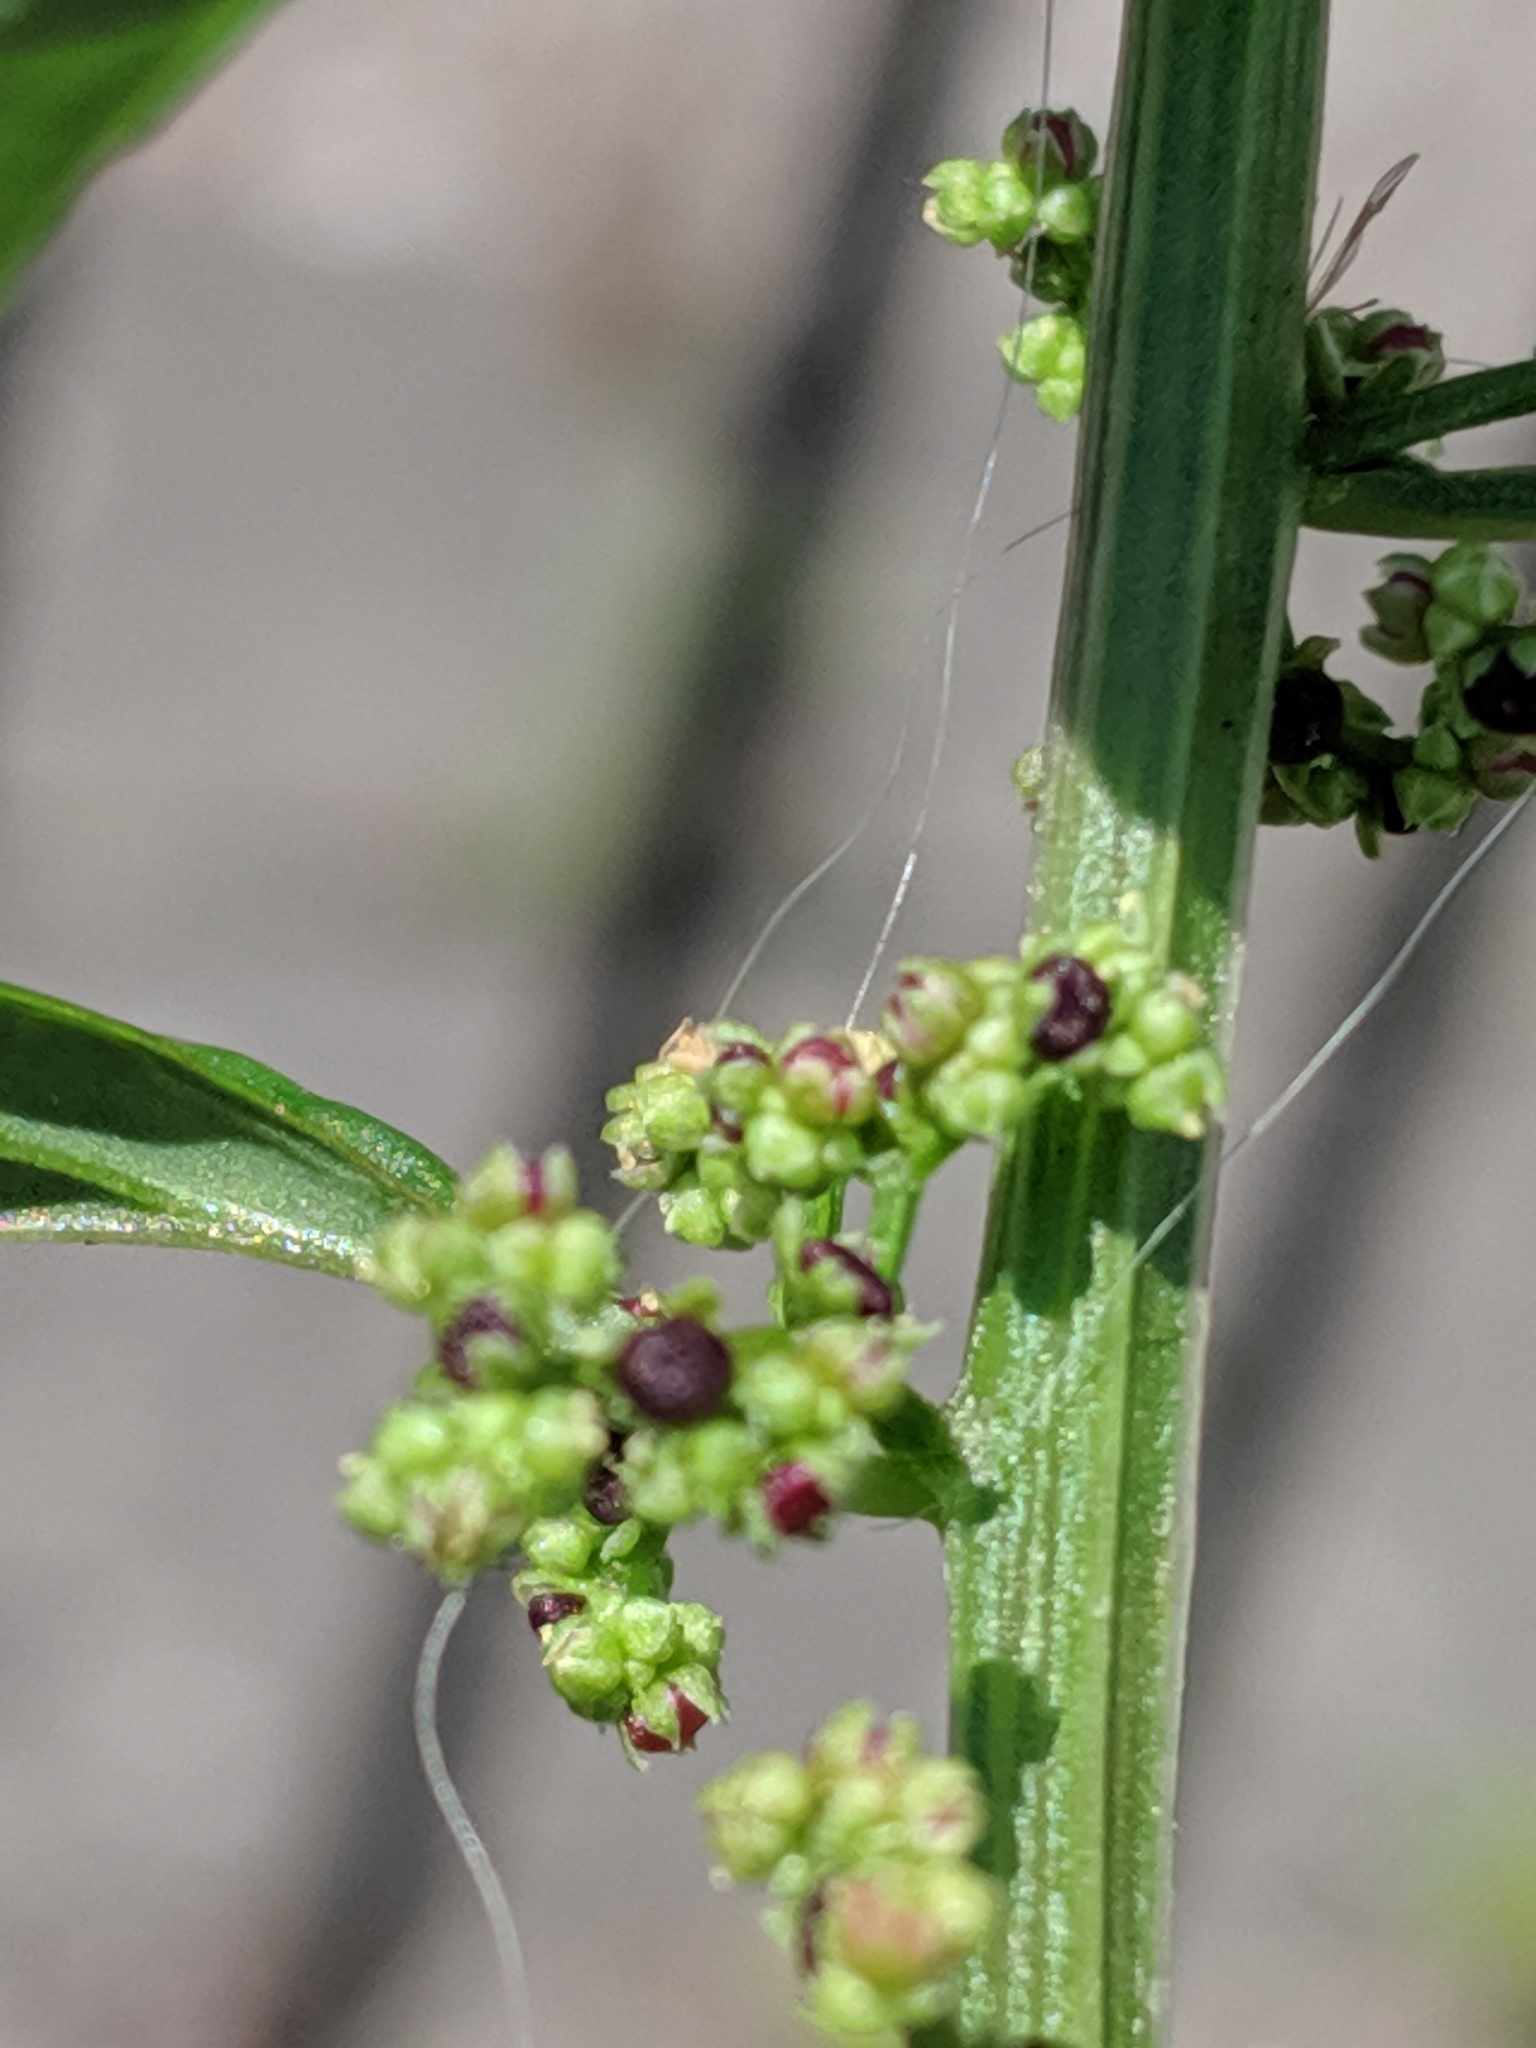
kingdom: Plantae
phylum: Tracheophyta
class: Magnoliopsida
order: Caryophyllales
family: Amaranthaceae
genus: Lipandra
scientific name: Lipandra polysperma
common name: Many-seed goosefoot
